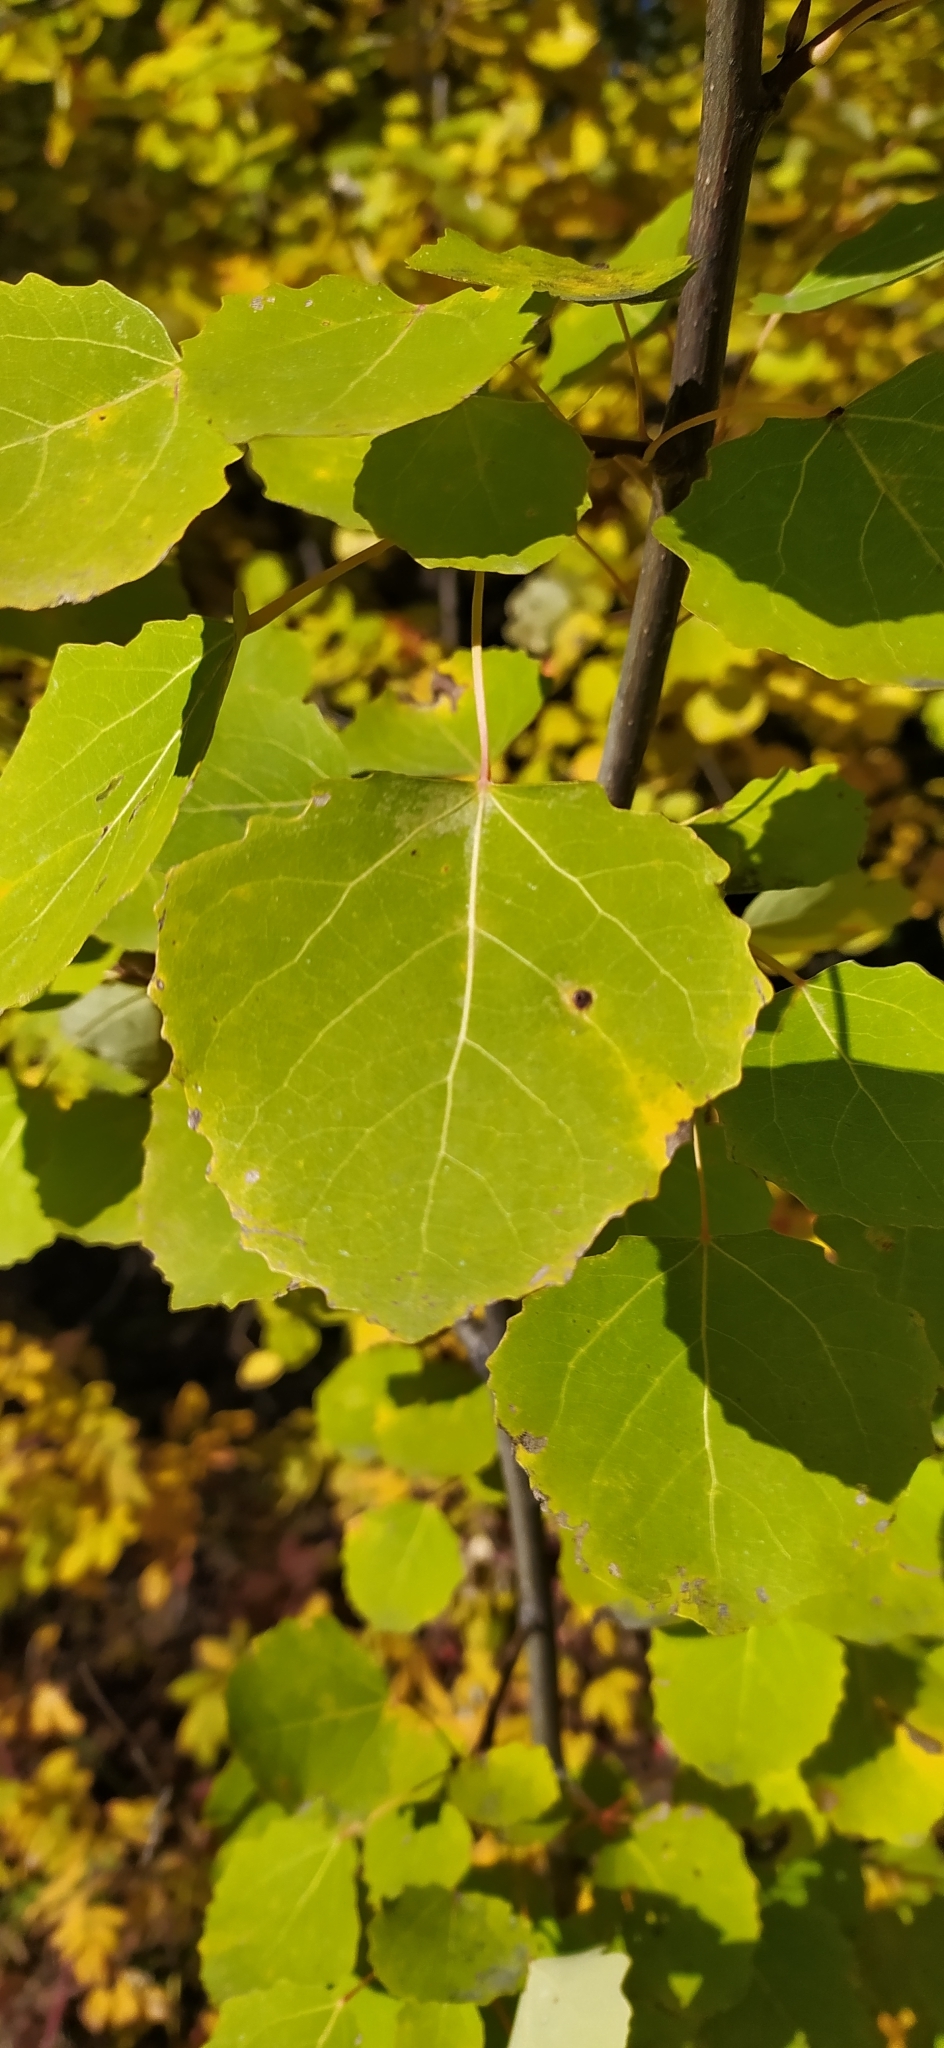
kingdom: Plantae
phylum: Tracheophyta
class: Magnoliopsida
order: Malpighiales
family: Salicaceae
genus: Populus
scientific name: Populus tremula
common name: European aspen
